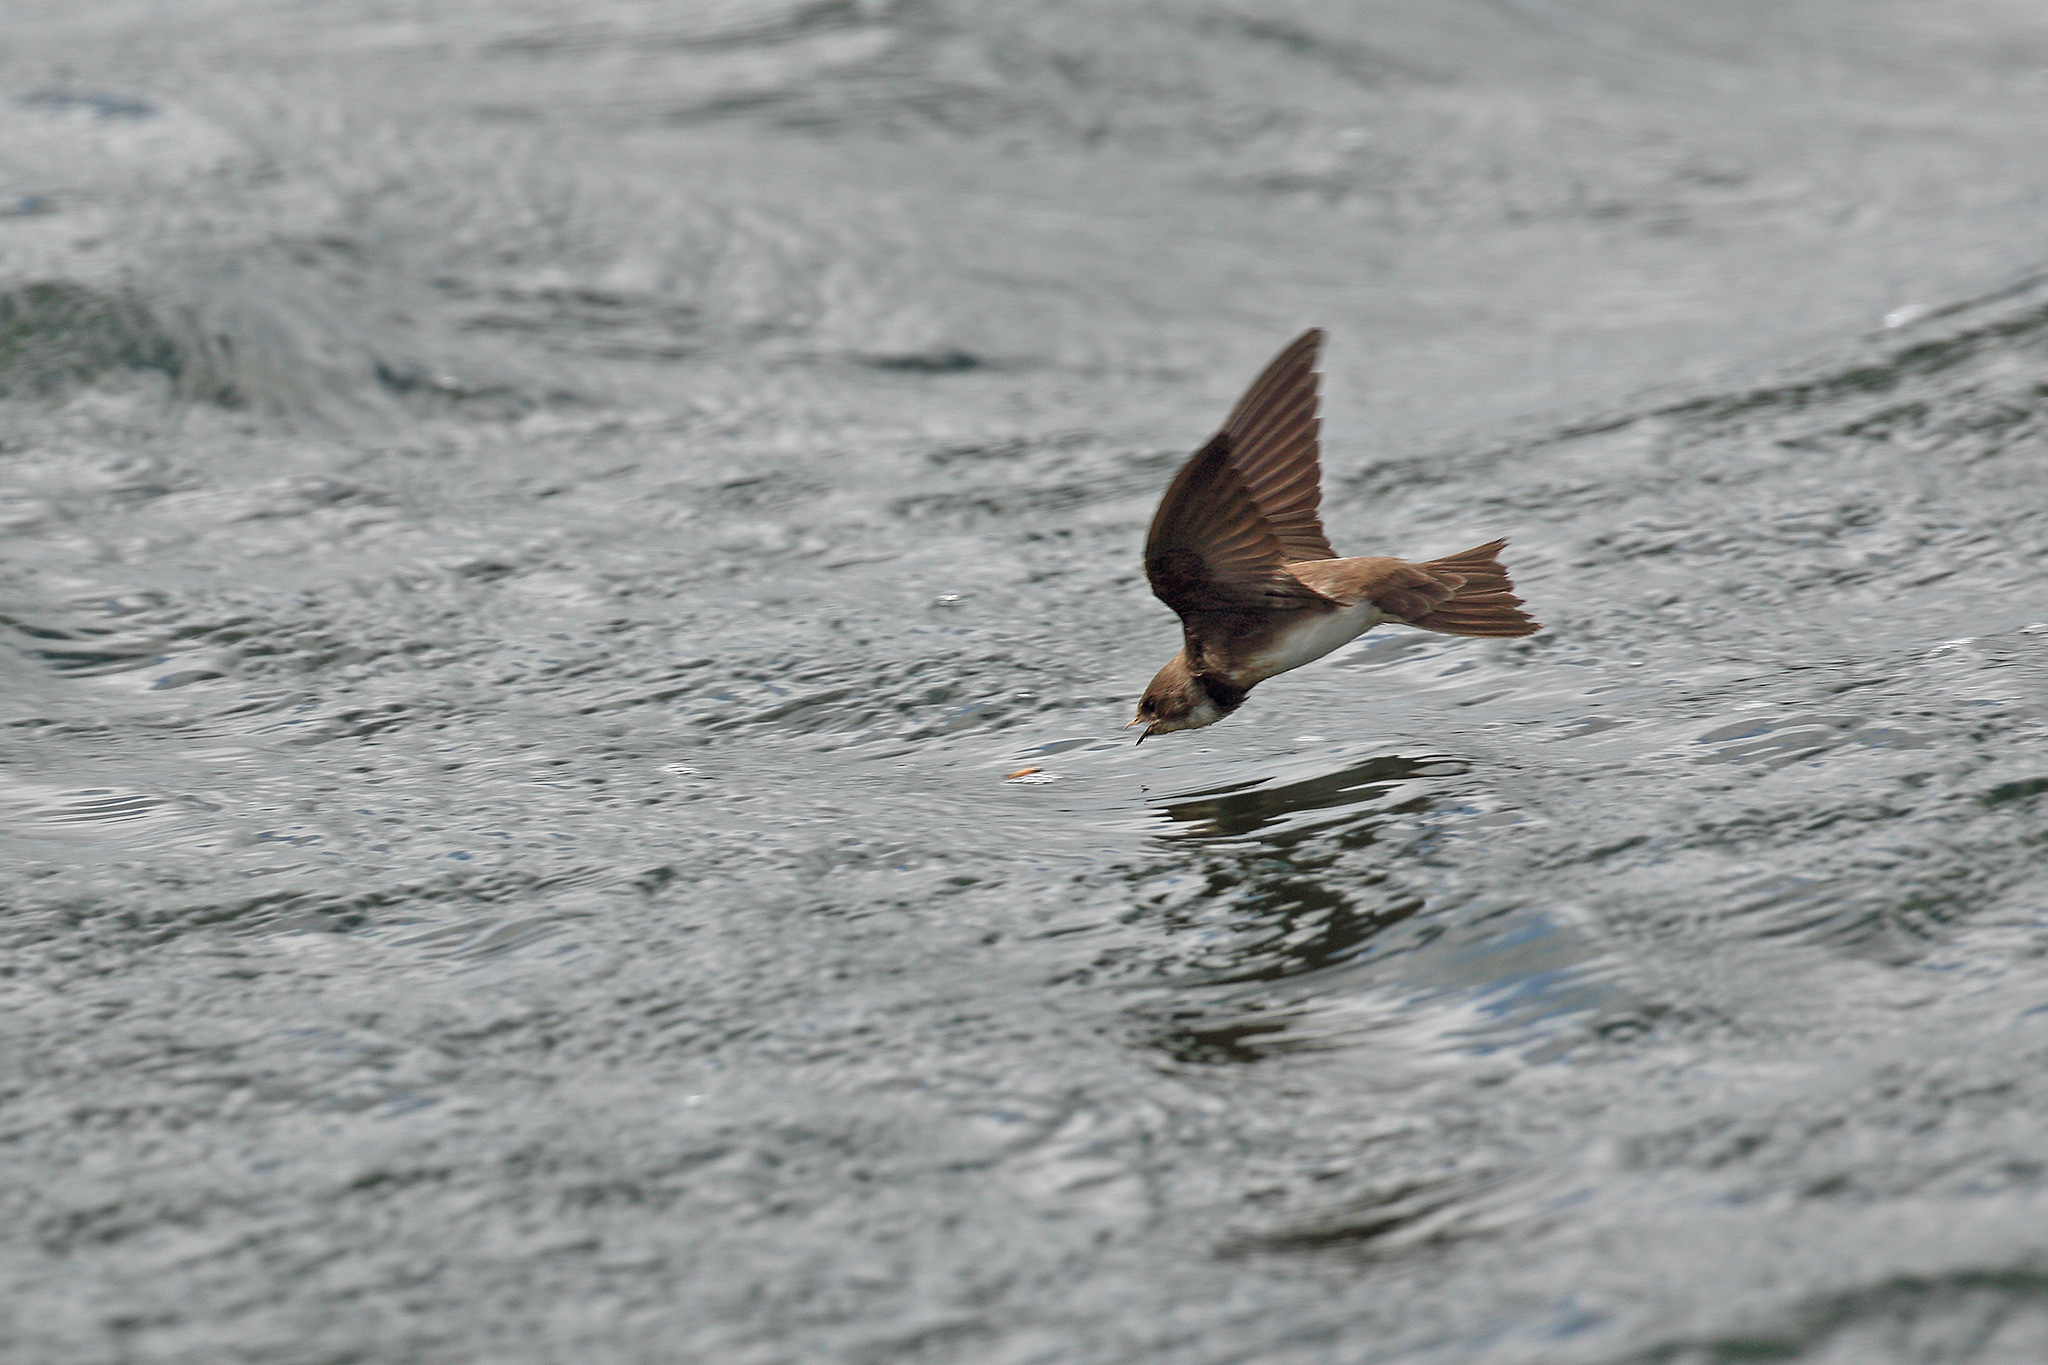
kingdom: Animalia
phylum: Chordata
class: Aves
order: Passeriformes
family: Hirundinidae
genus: Riparia
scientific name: Riparia riparia
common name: Sand martin
